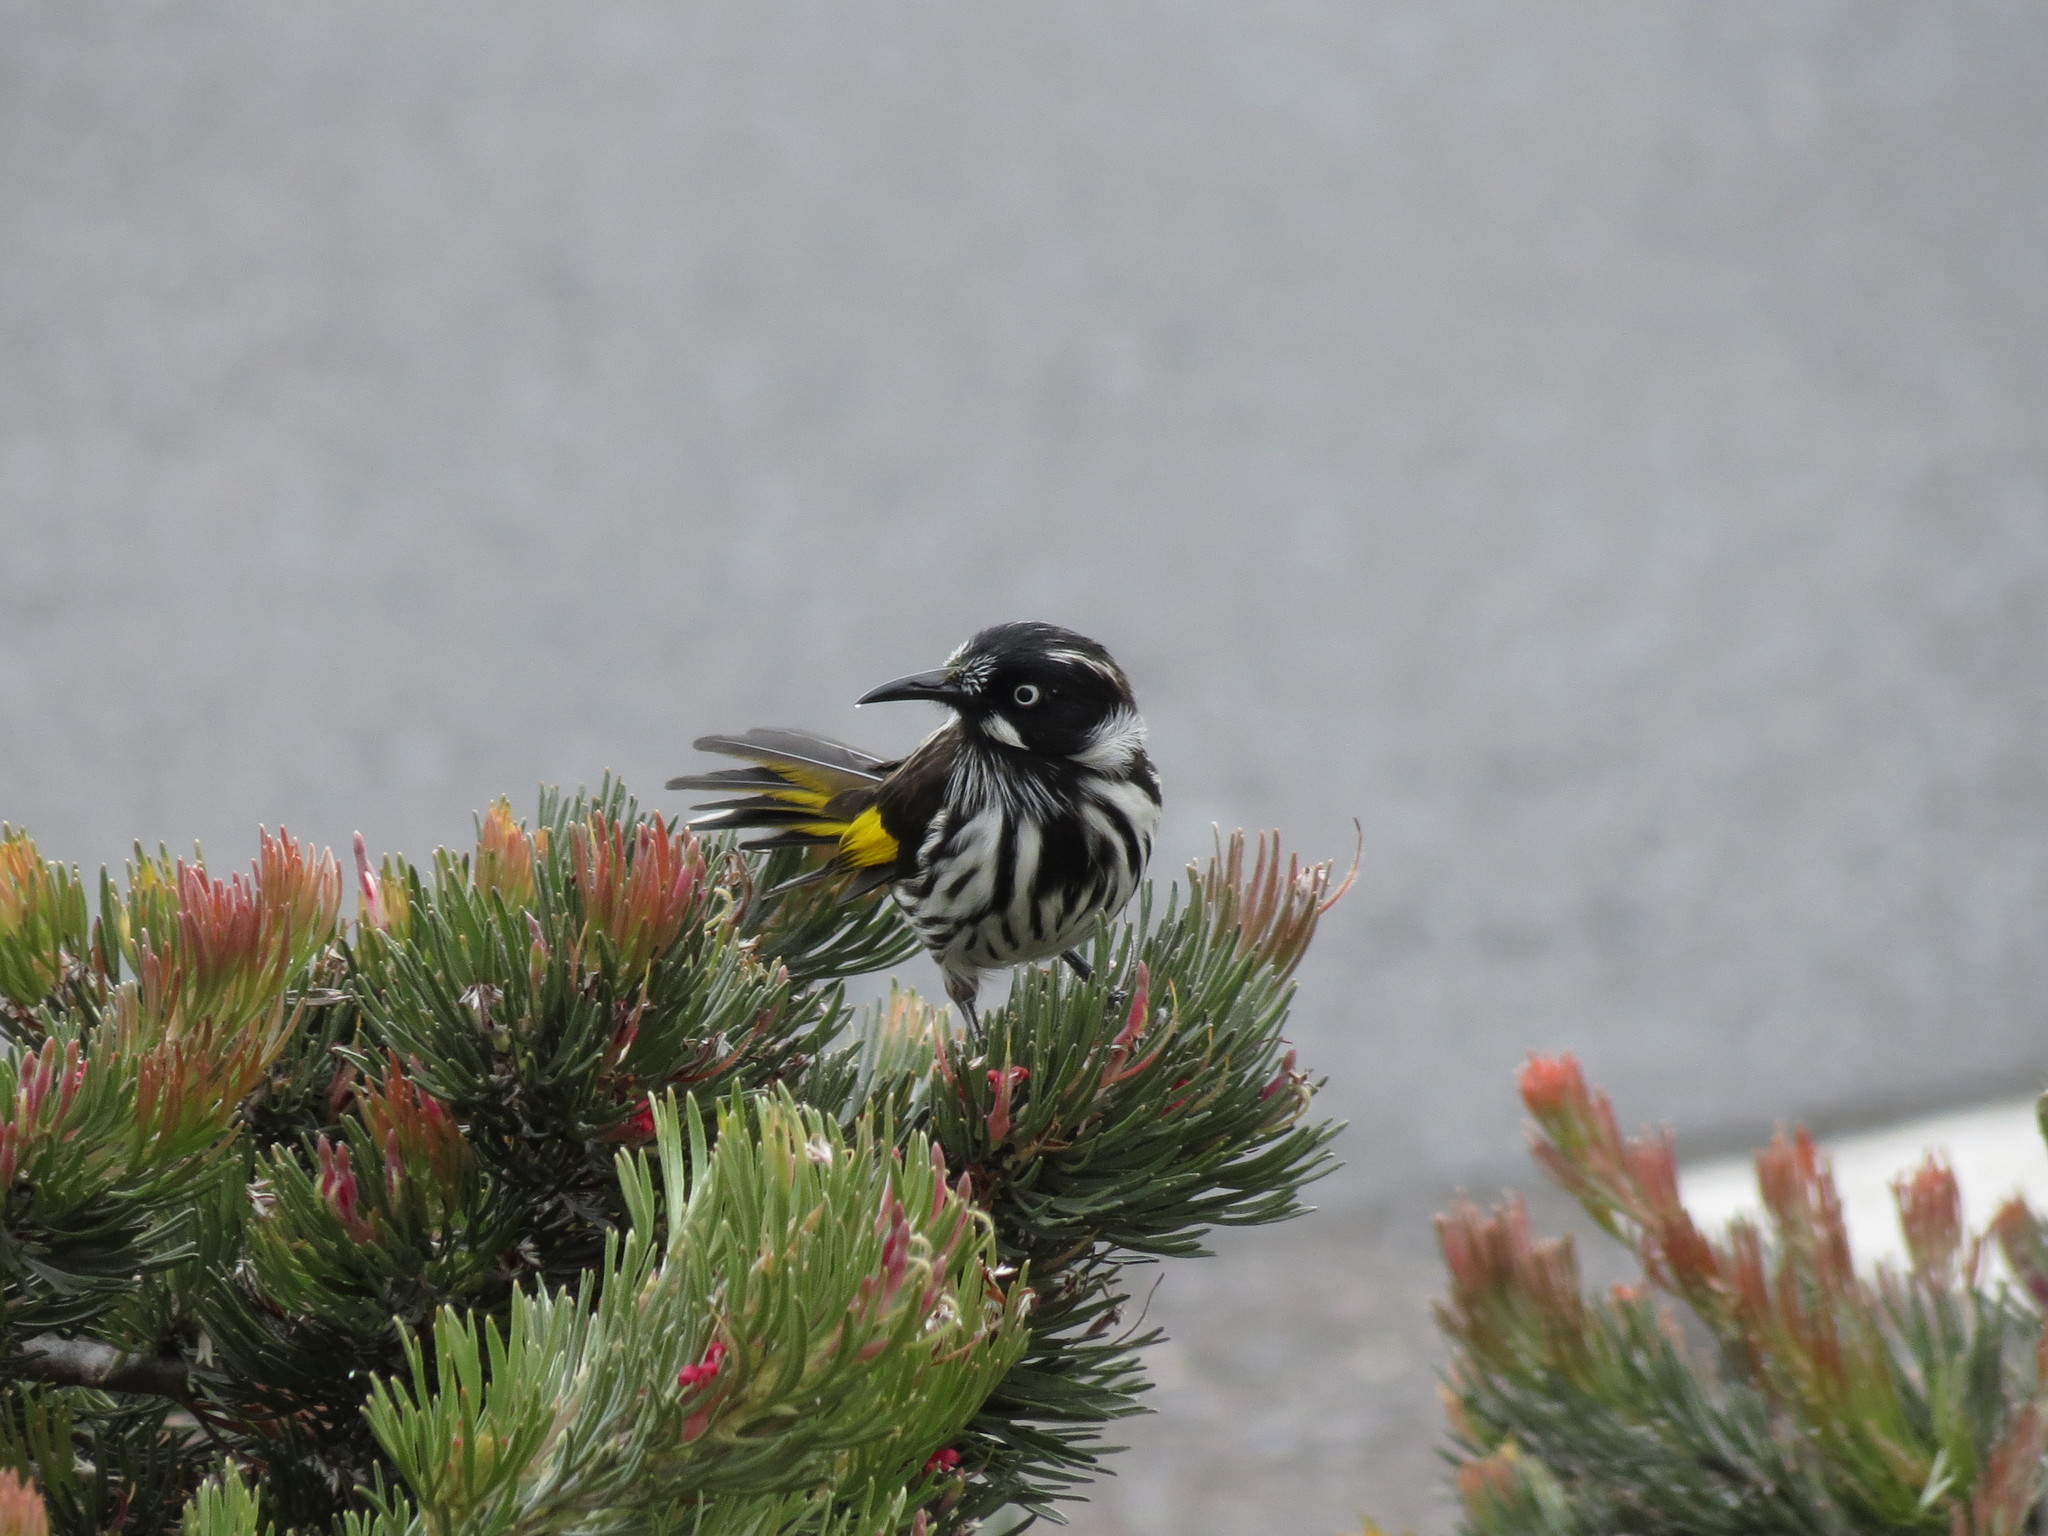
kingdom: Animalia
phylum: Chordata
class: Aves
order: Passeriformes
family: Meliphagidae
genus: Phylidonyris
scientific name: Phylidonyris novaehollandiae
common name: New holland honeyeater
